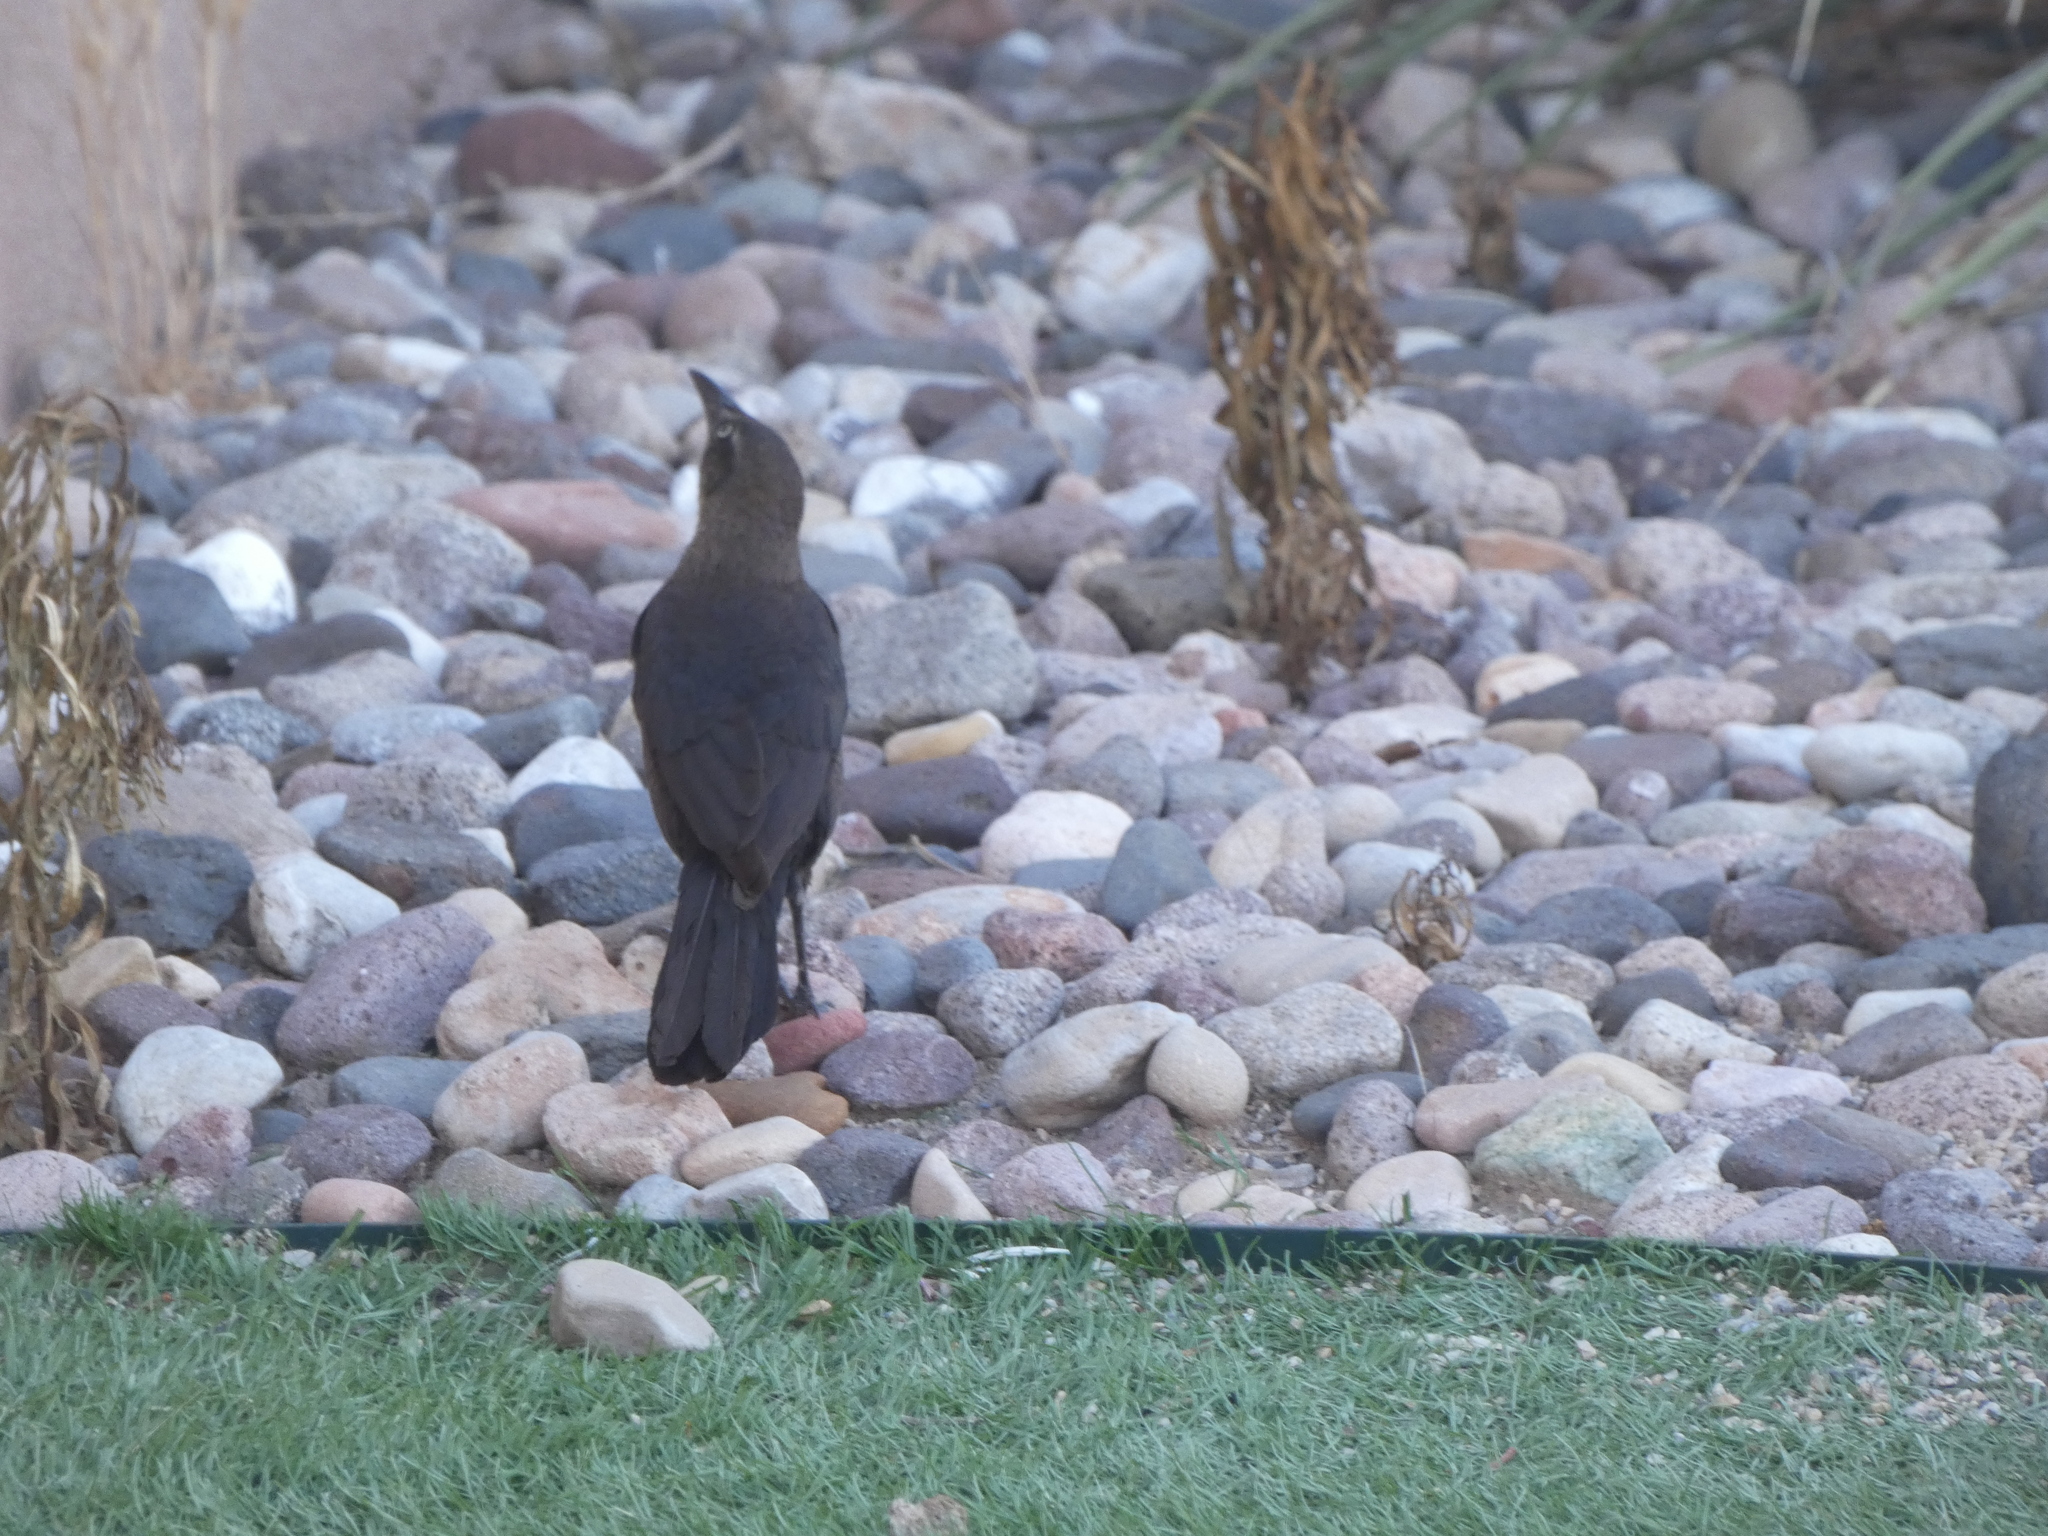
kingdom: Animalia
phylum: Chordata
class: Aves
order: Passeriformes
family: Icteridae
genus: Quiscalus
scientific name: Quiscalus mexicanus
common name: Great-tailed grackle
